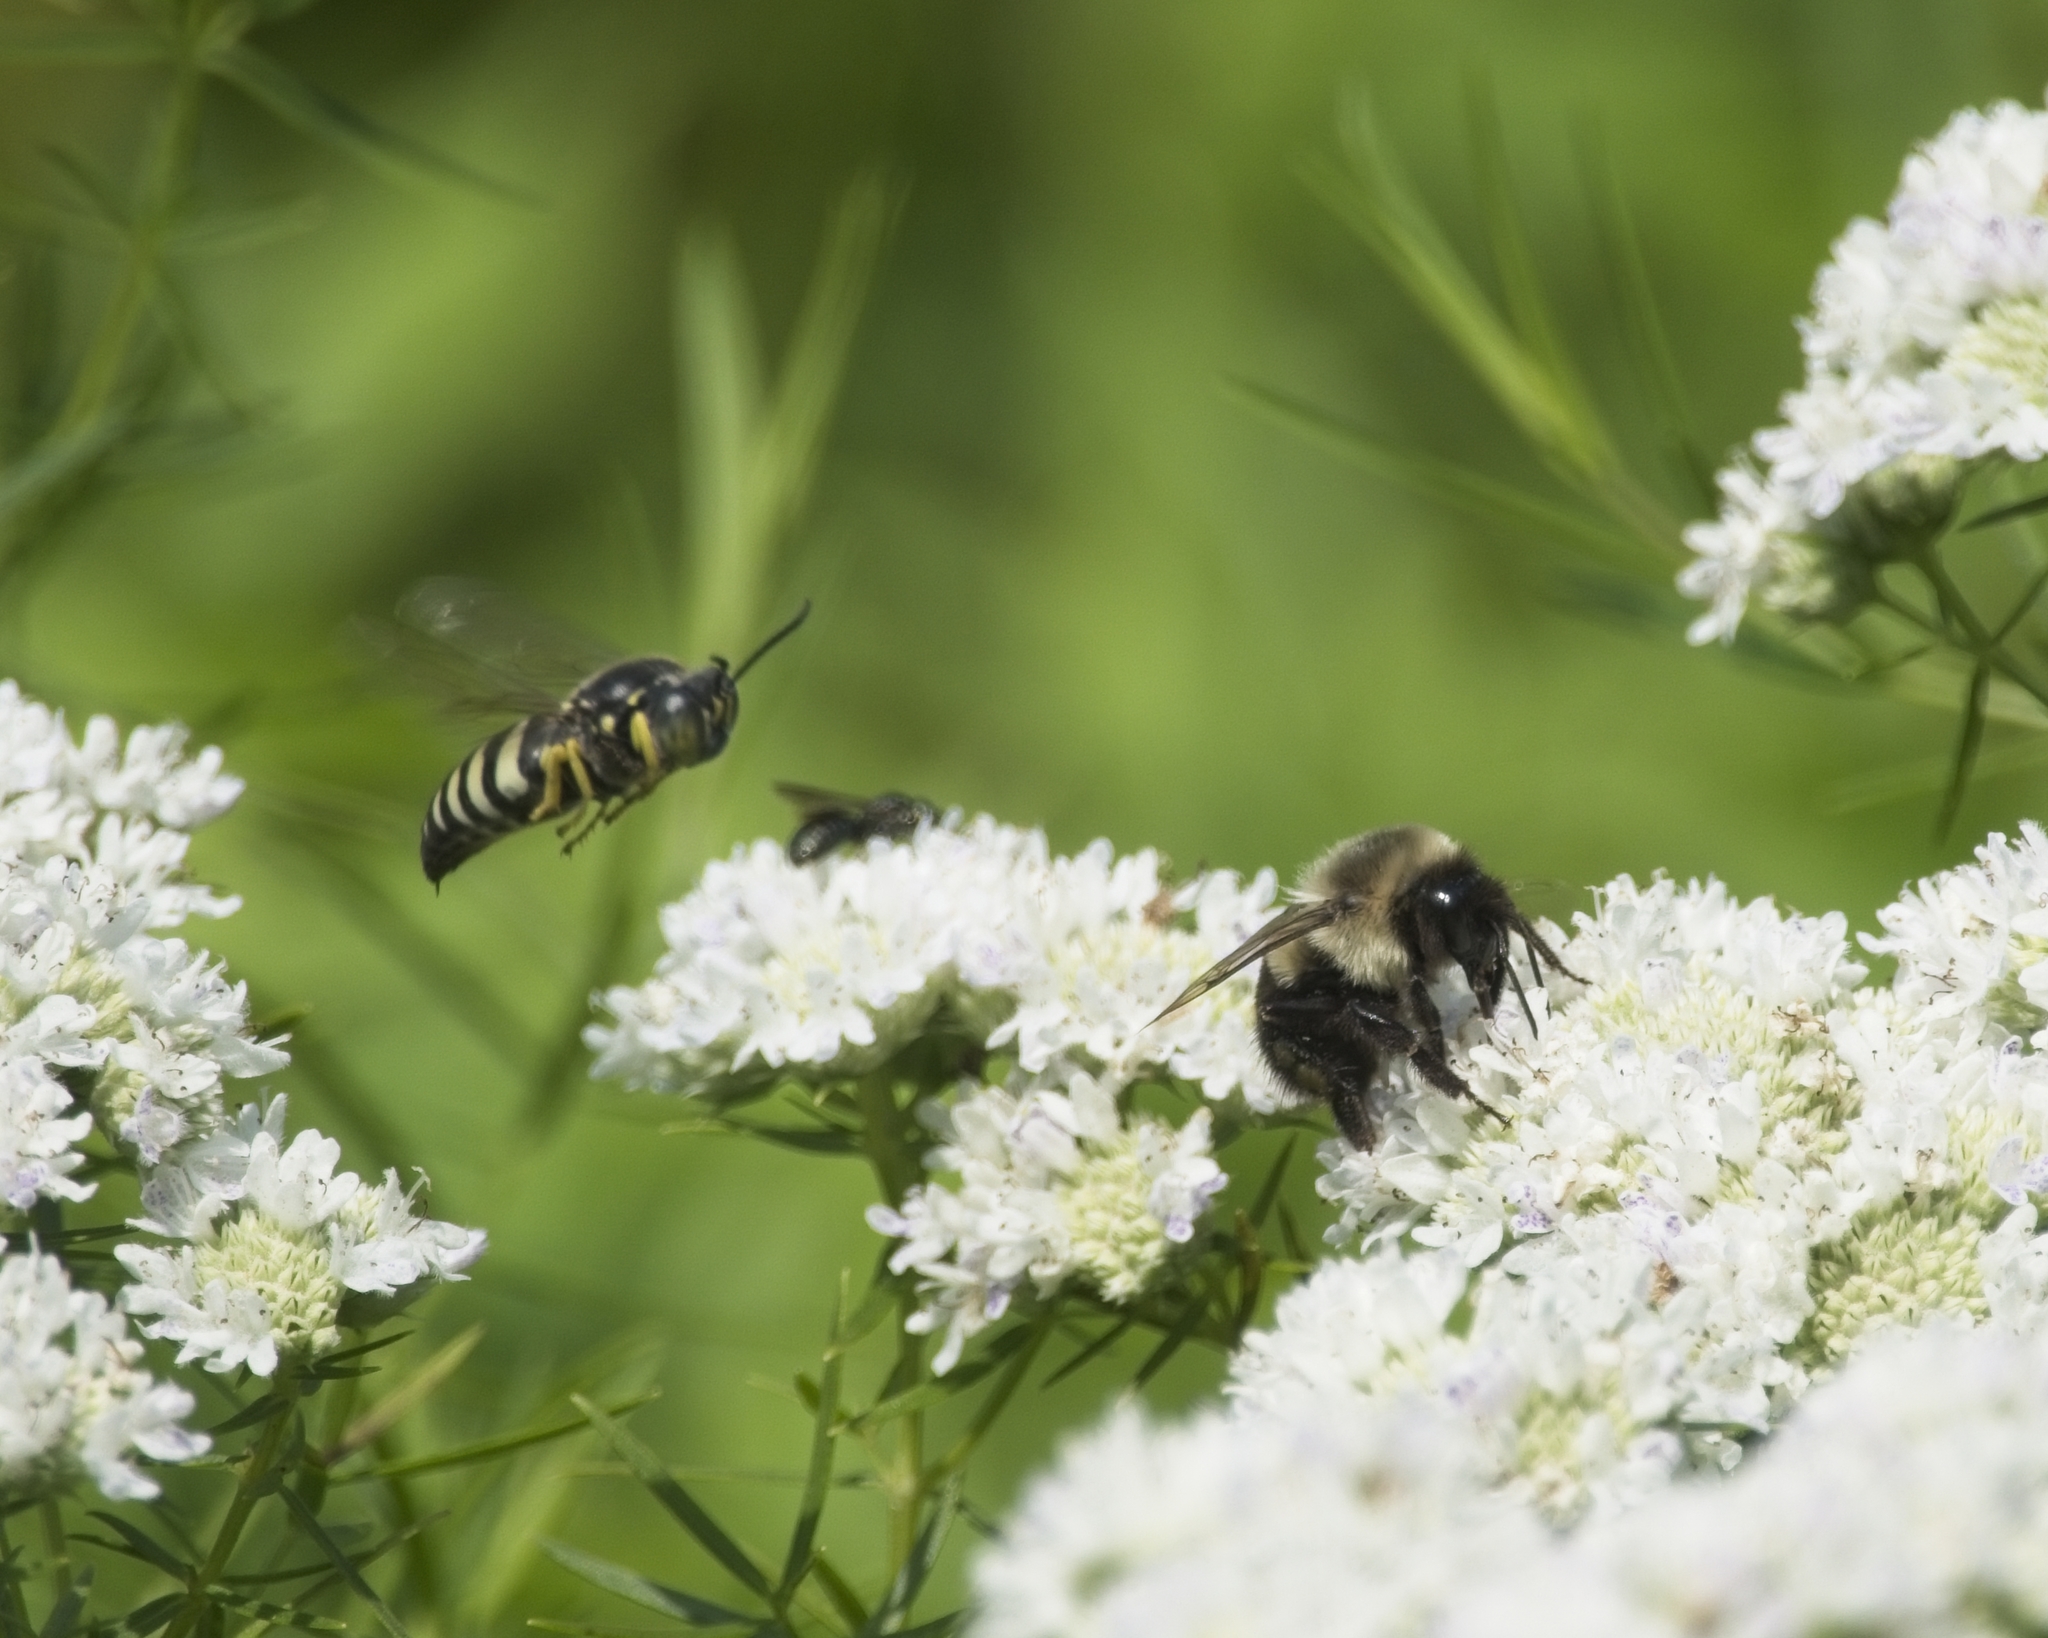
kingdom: Animalia
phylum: Arthropoda
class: Insecta
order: Hymenoptera
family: Crabronidae
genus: Bicyrtes
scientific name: Bicyrtes quadrifasciatus
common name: Four-banded stink bug hunter wasp
